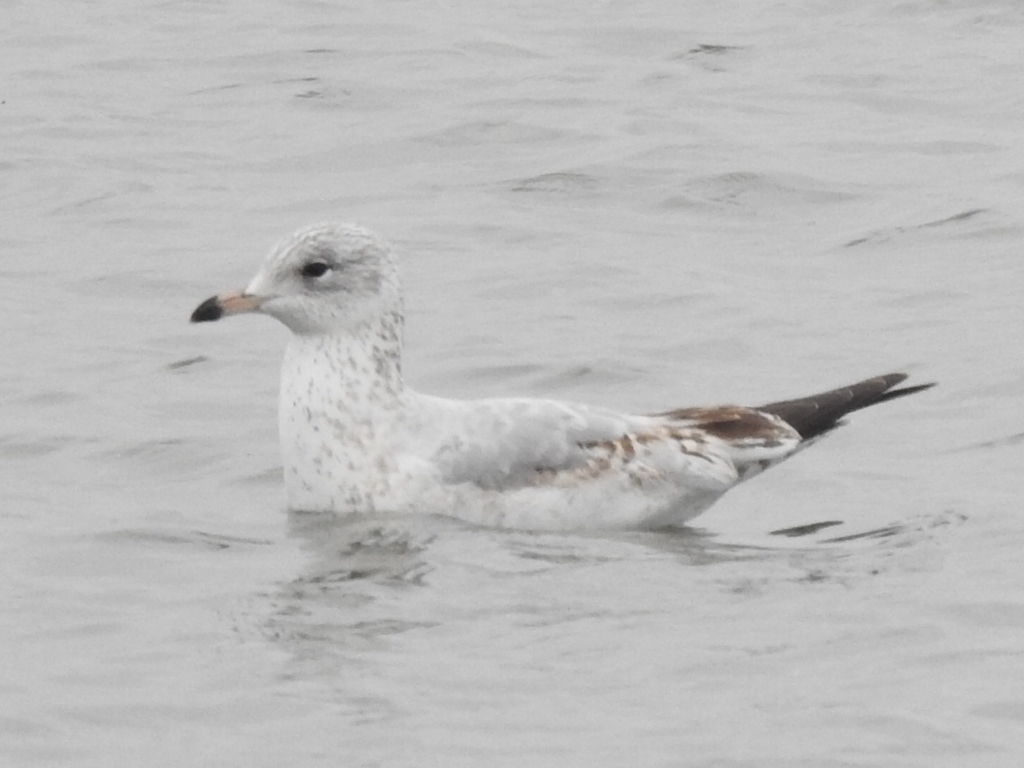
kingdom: Animalia
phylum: Chordata
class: Aves
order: Charadriiformes
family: Laridae
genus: Larus
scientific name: Larus delawarensis
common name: Ring-billed gull
